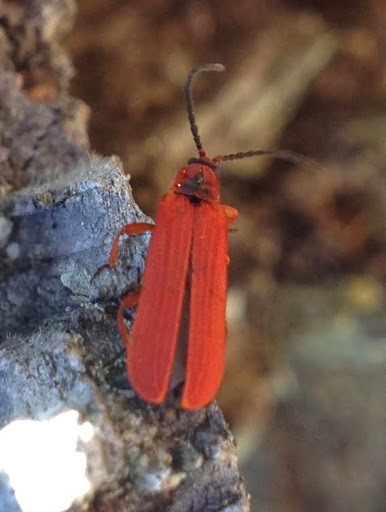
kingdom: Animalia
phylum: Arthropoda
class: Insecta
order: Coleoptera
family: Lycidae
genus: Dictyoptera
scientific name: Dictyoptera simplicipes
